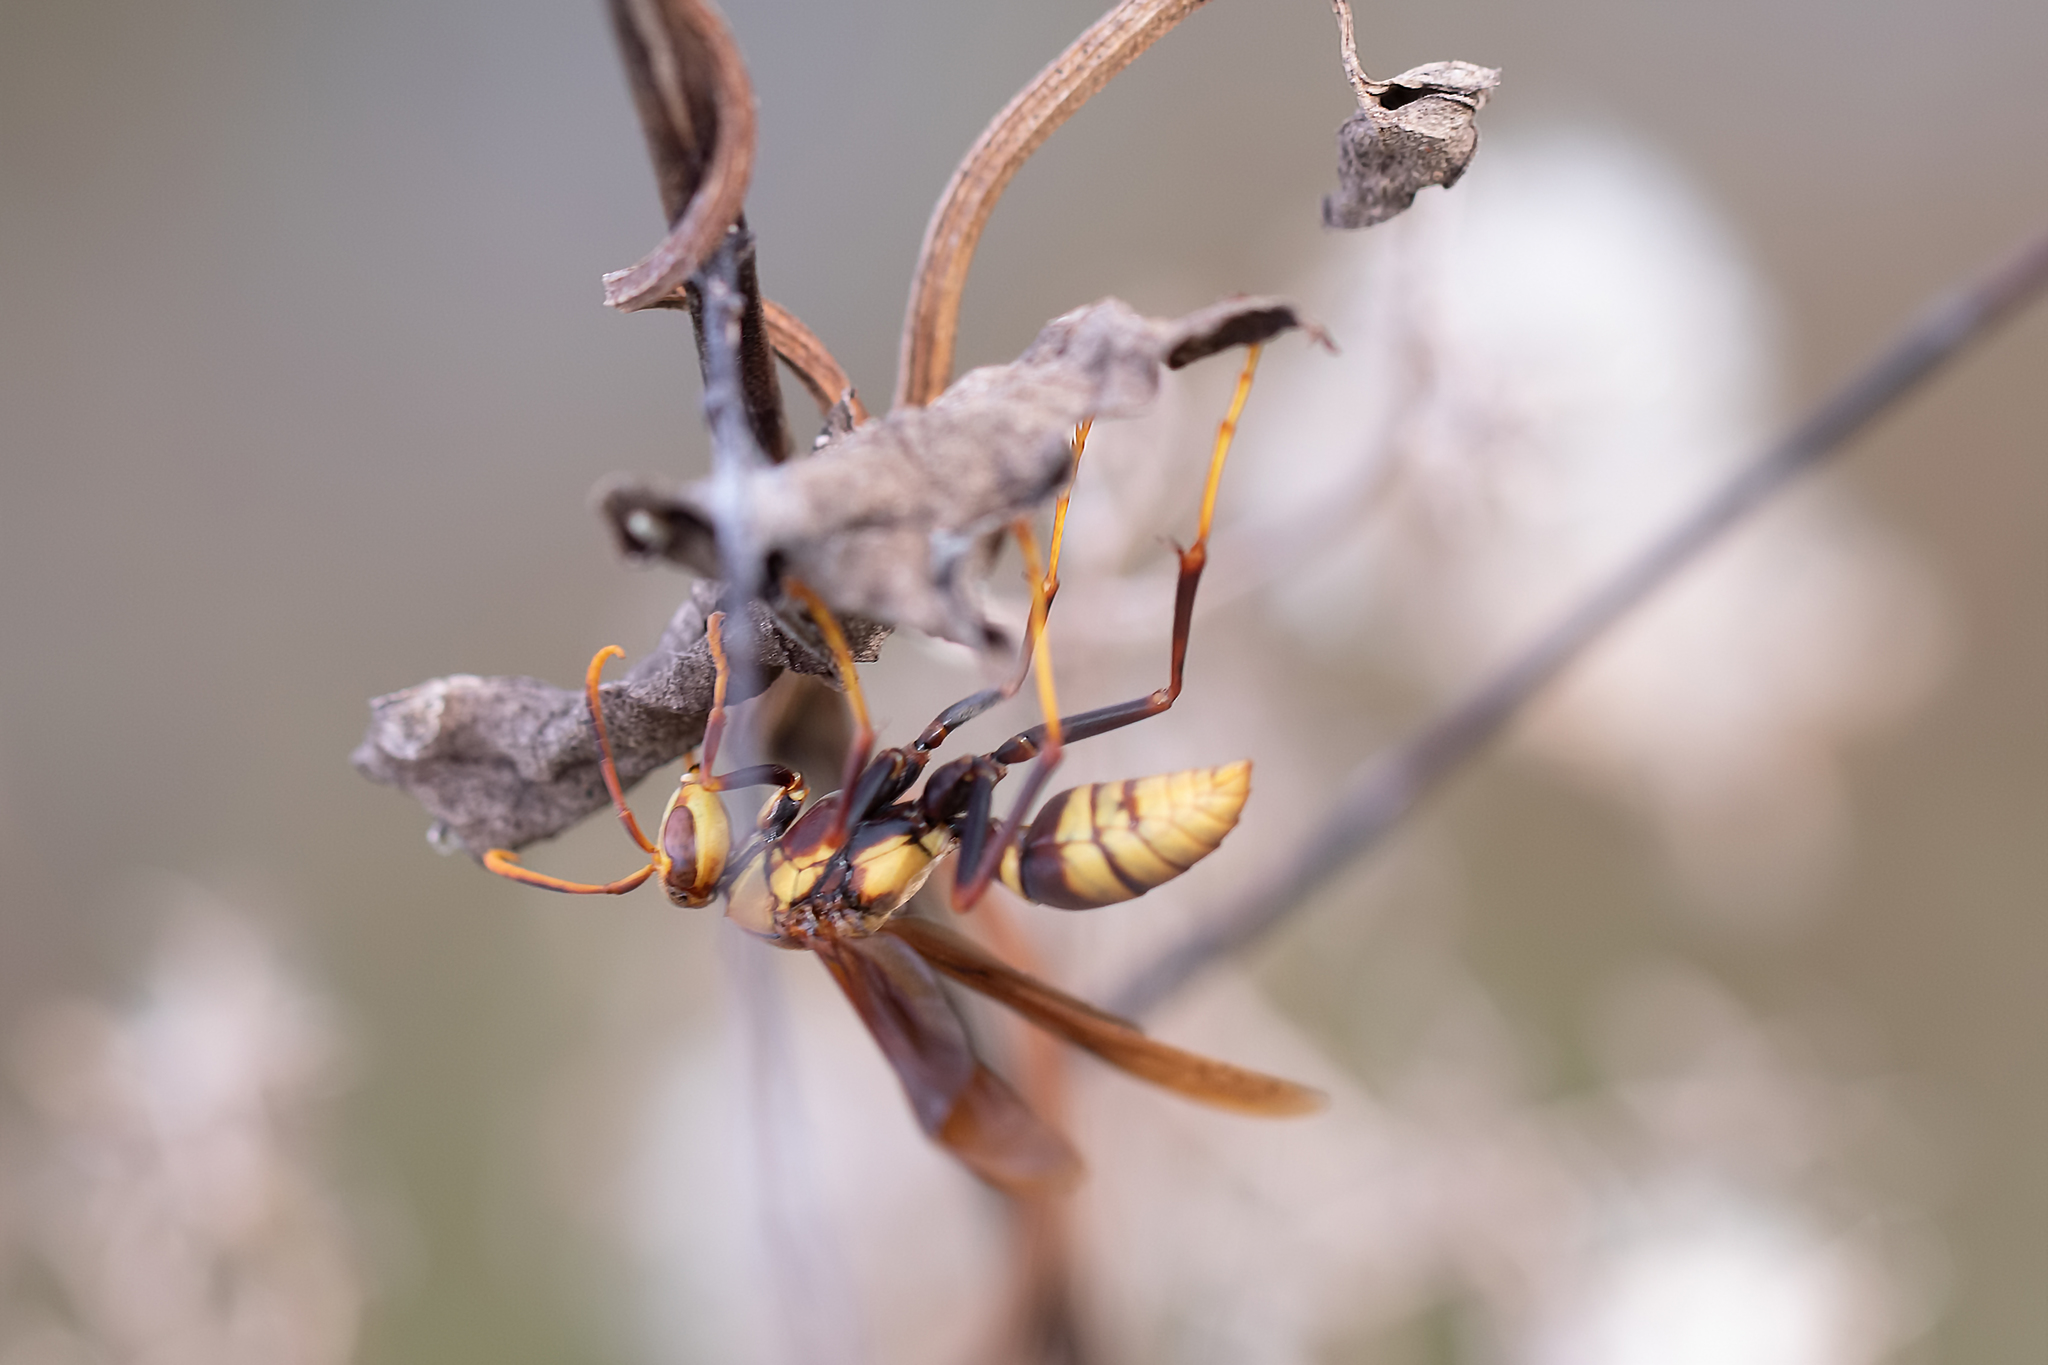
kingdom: Animalia
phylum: Arthropoda
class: Insecta
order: Hymenoptera
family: Eumenidae
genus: Polistes
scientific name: Polistes major
